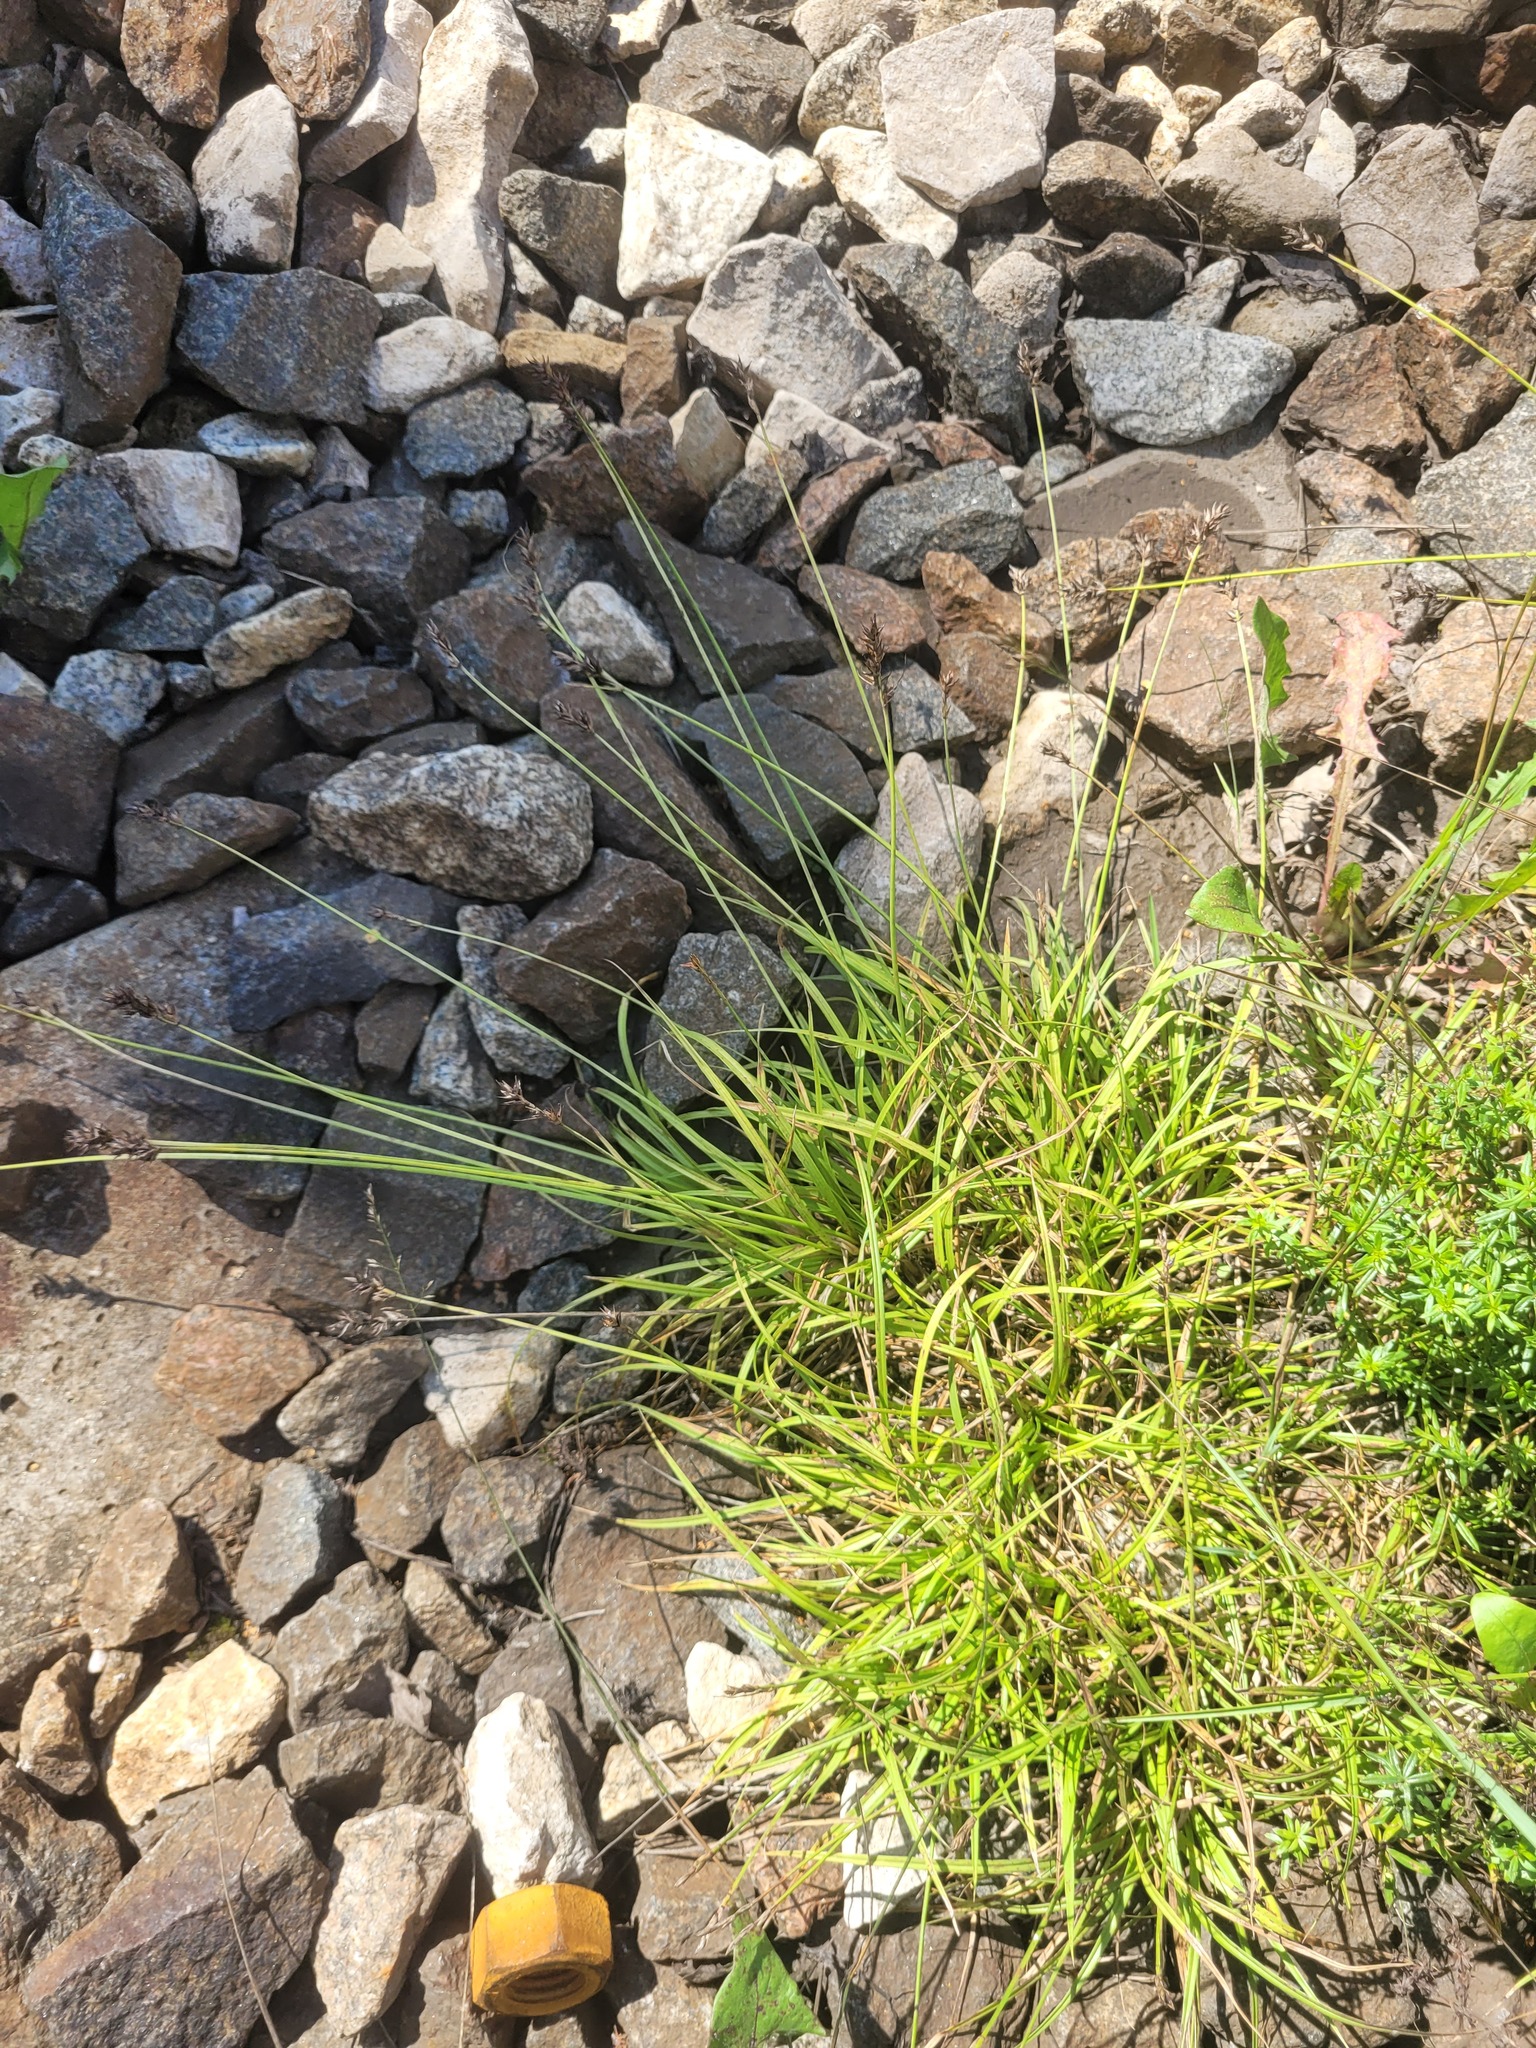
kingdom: Plantae
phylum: Tracheophyta
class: Liliopsida
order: Poales
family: Cyperaceae
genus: Carex
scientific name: Carex spicata
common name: Spiked sedge
